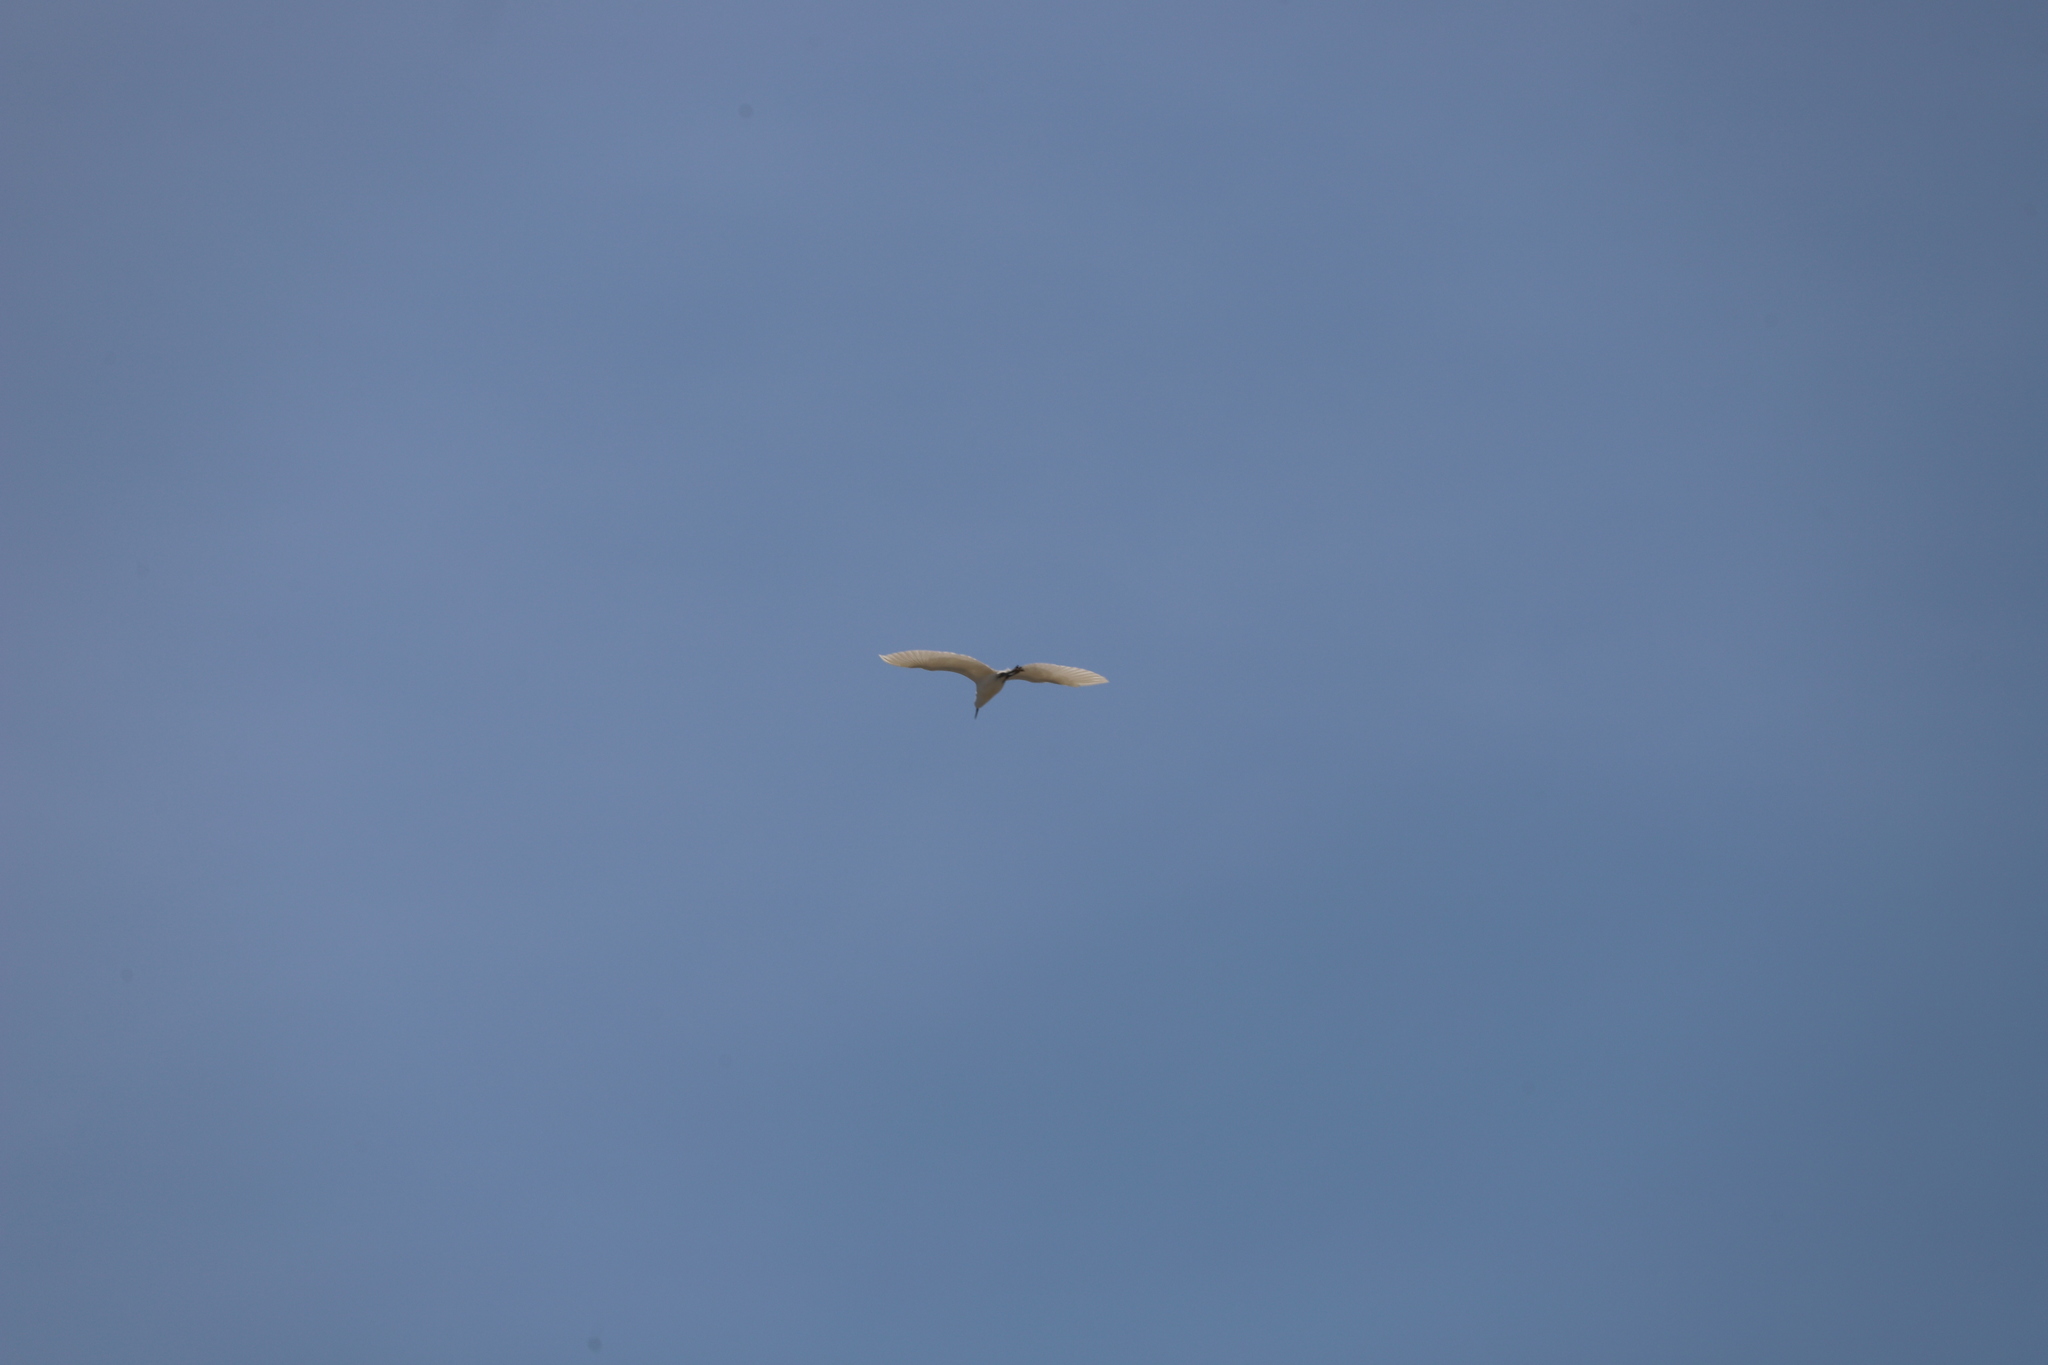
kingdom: Animalia
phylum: Chordata
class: Aves
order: Pelecaniformes
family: Ardeidae
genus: Ardea
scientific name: Ardea alba
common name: Great egret
